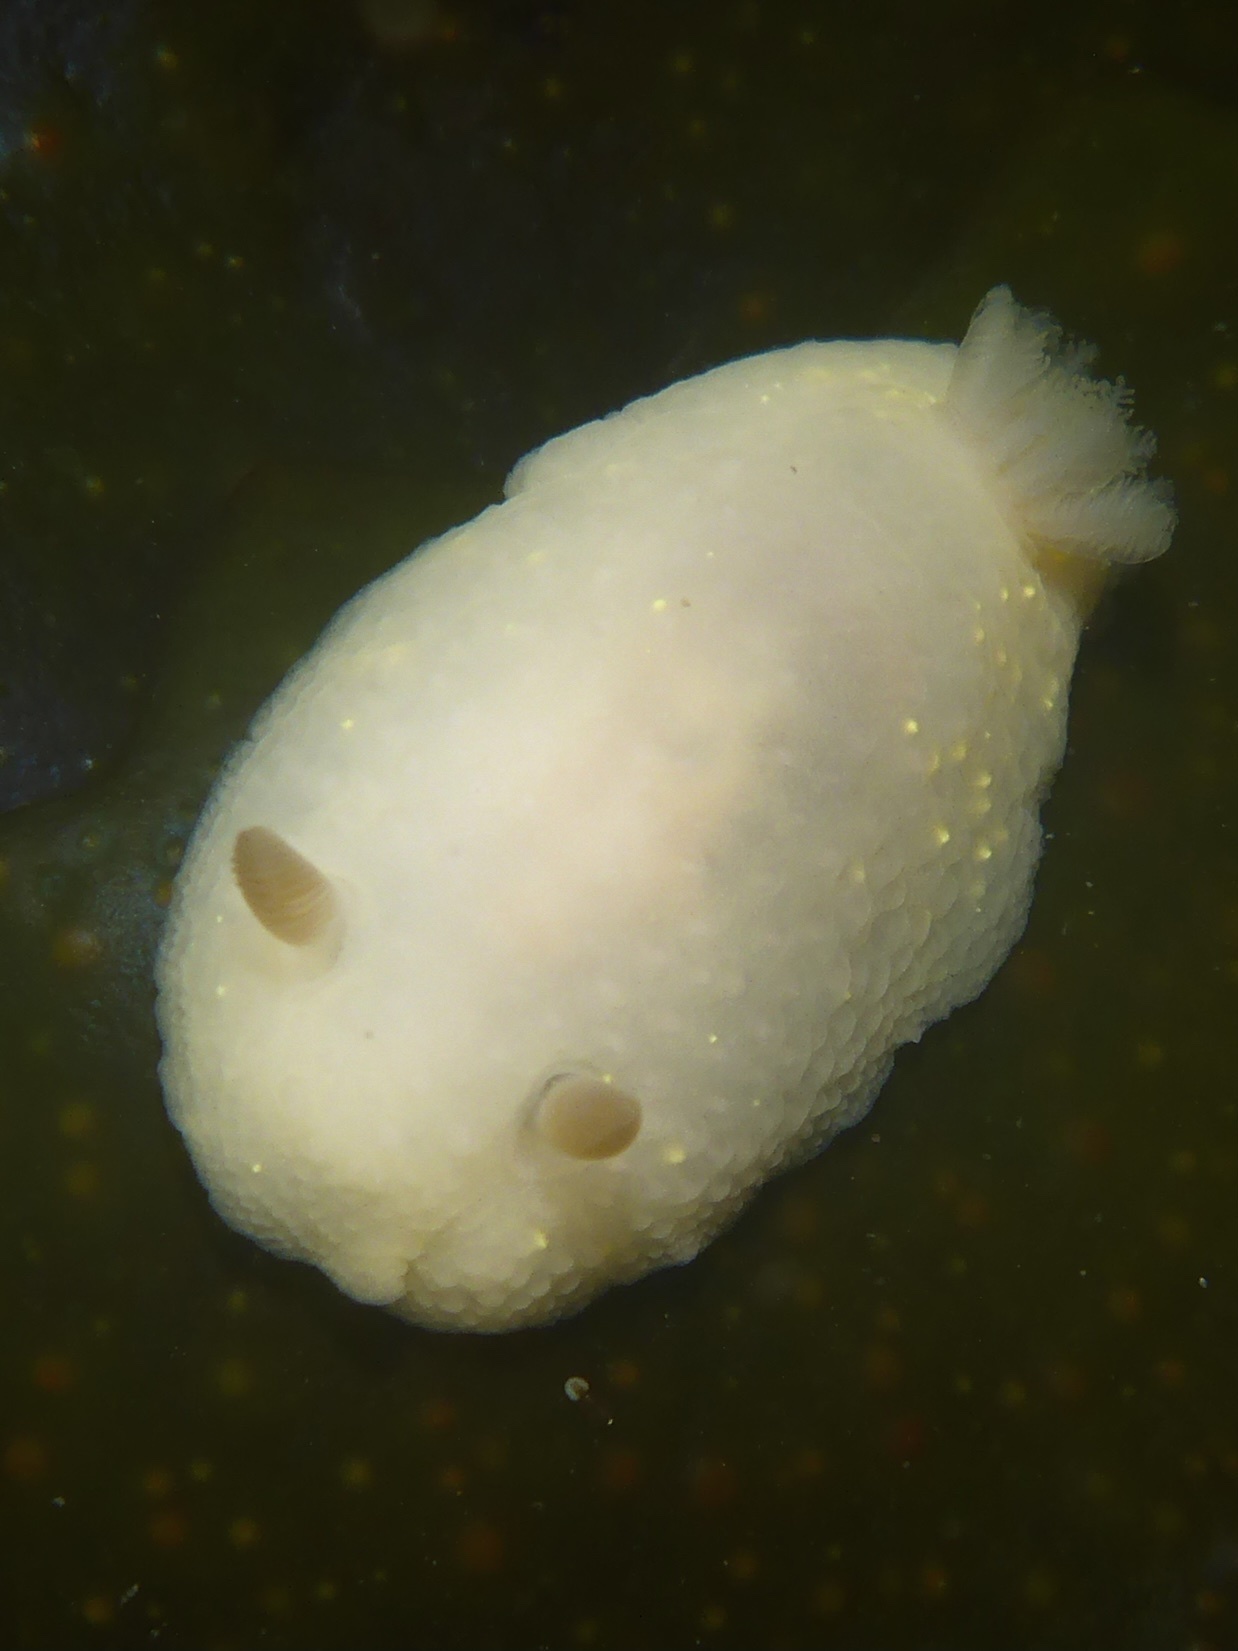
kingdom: Animalia
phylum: Mollusca
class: Gastropoda
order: Nudibranchia
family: Cadlinidae
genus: Cadlina
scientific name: Cadlina modesta
